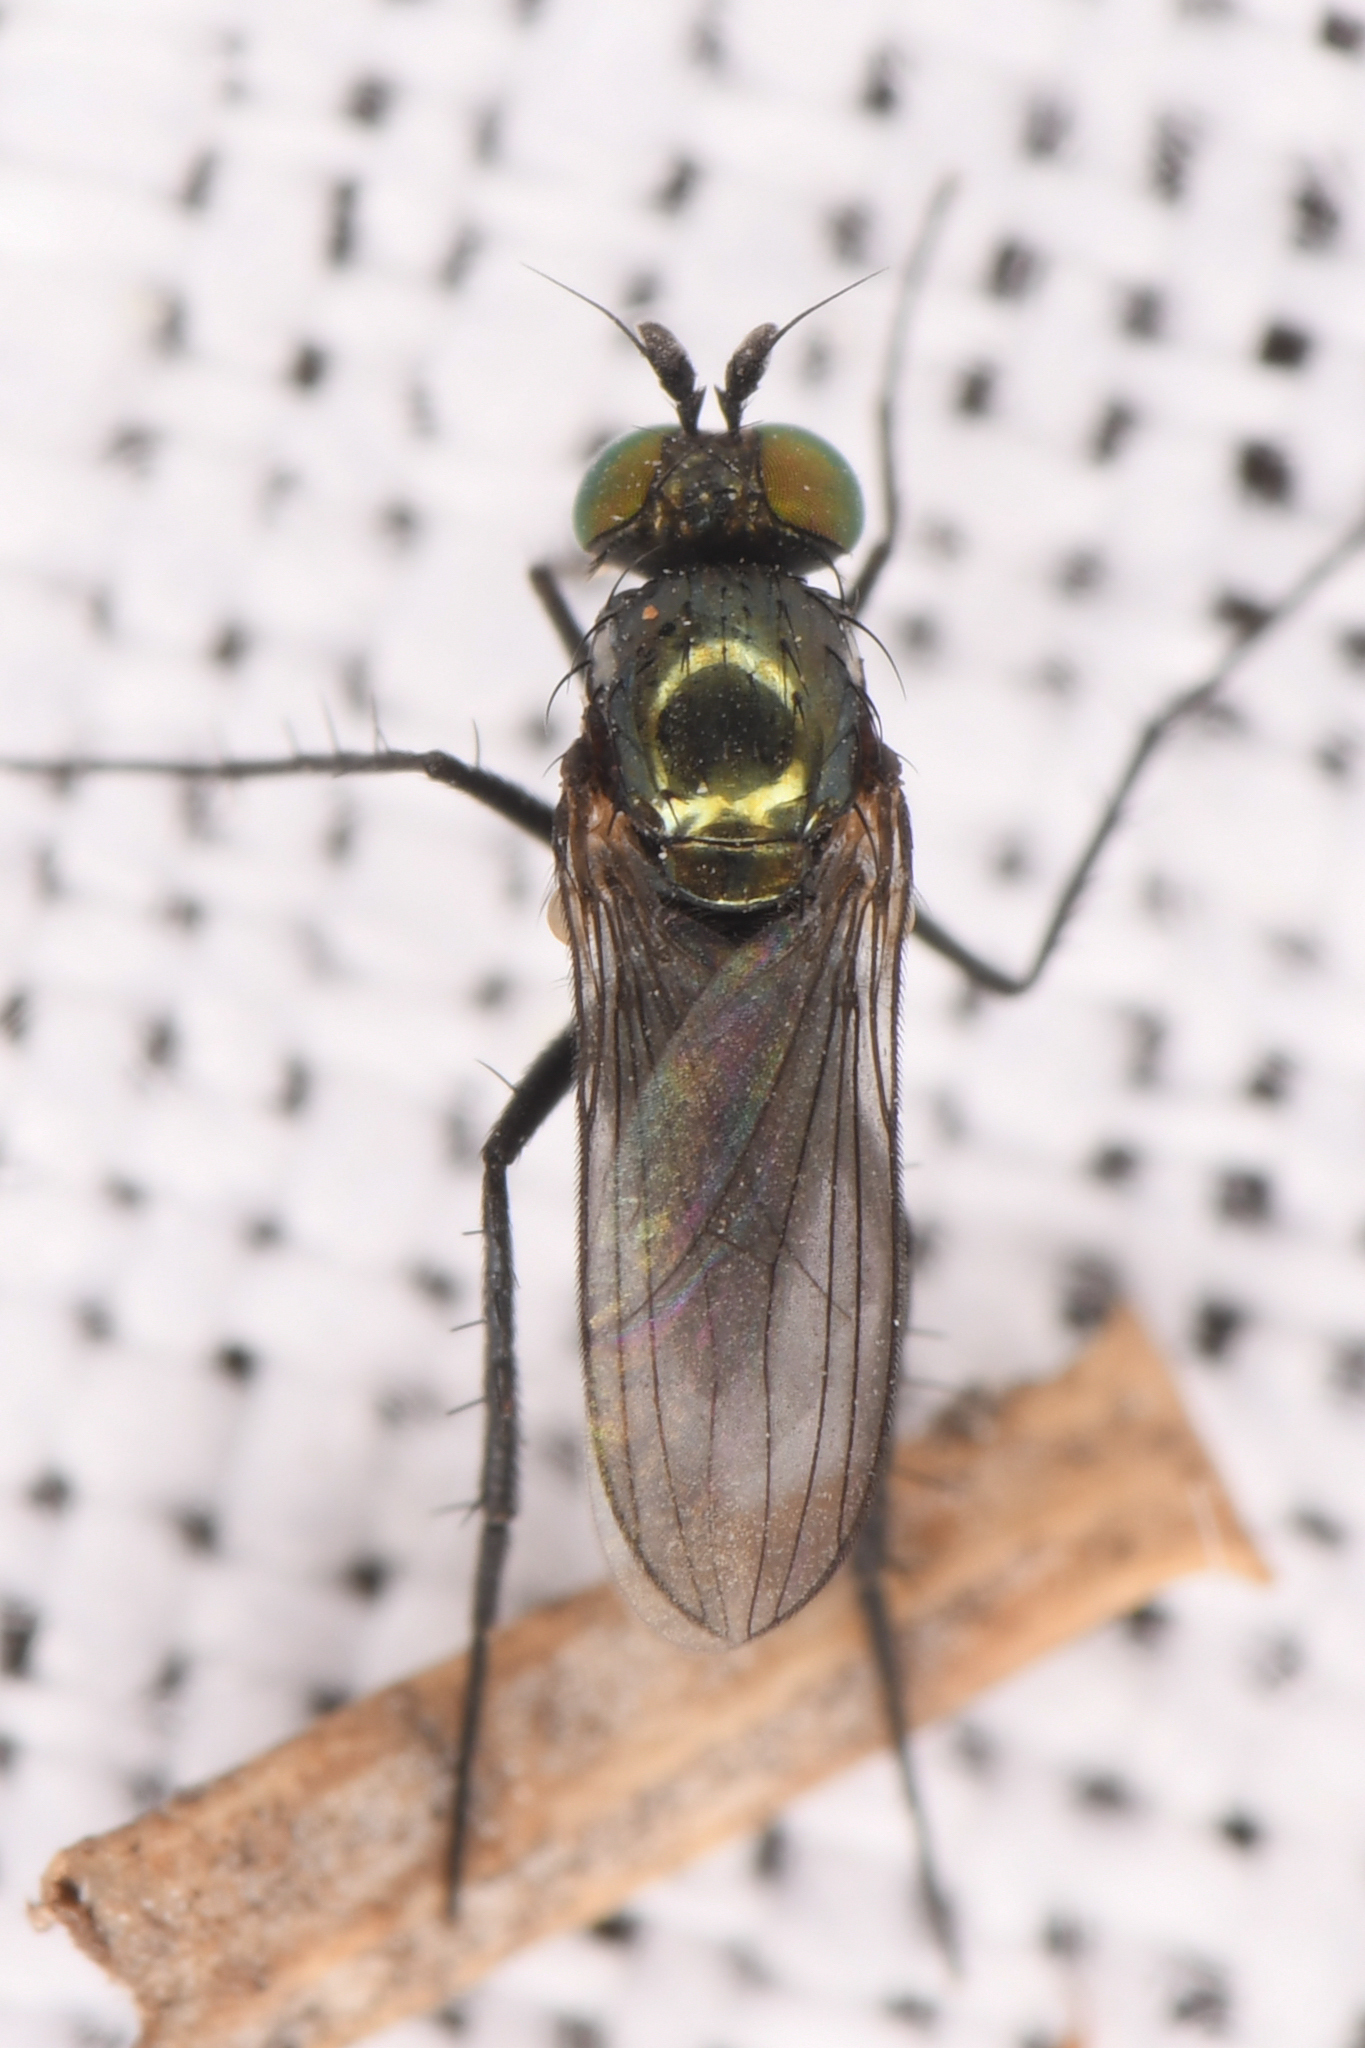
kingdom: Animalia
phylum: Arthropoda
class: Insecta
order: Diptera
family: Dolichopodidae
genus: Hercostomus
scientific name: Hercostomus unicolor
